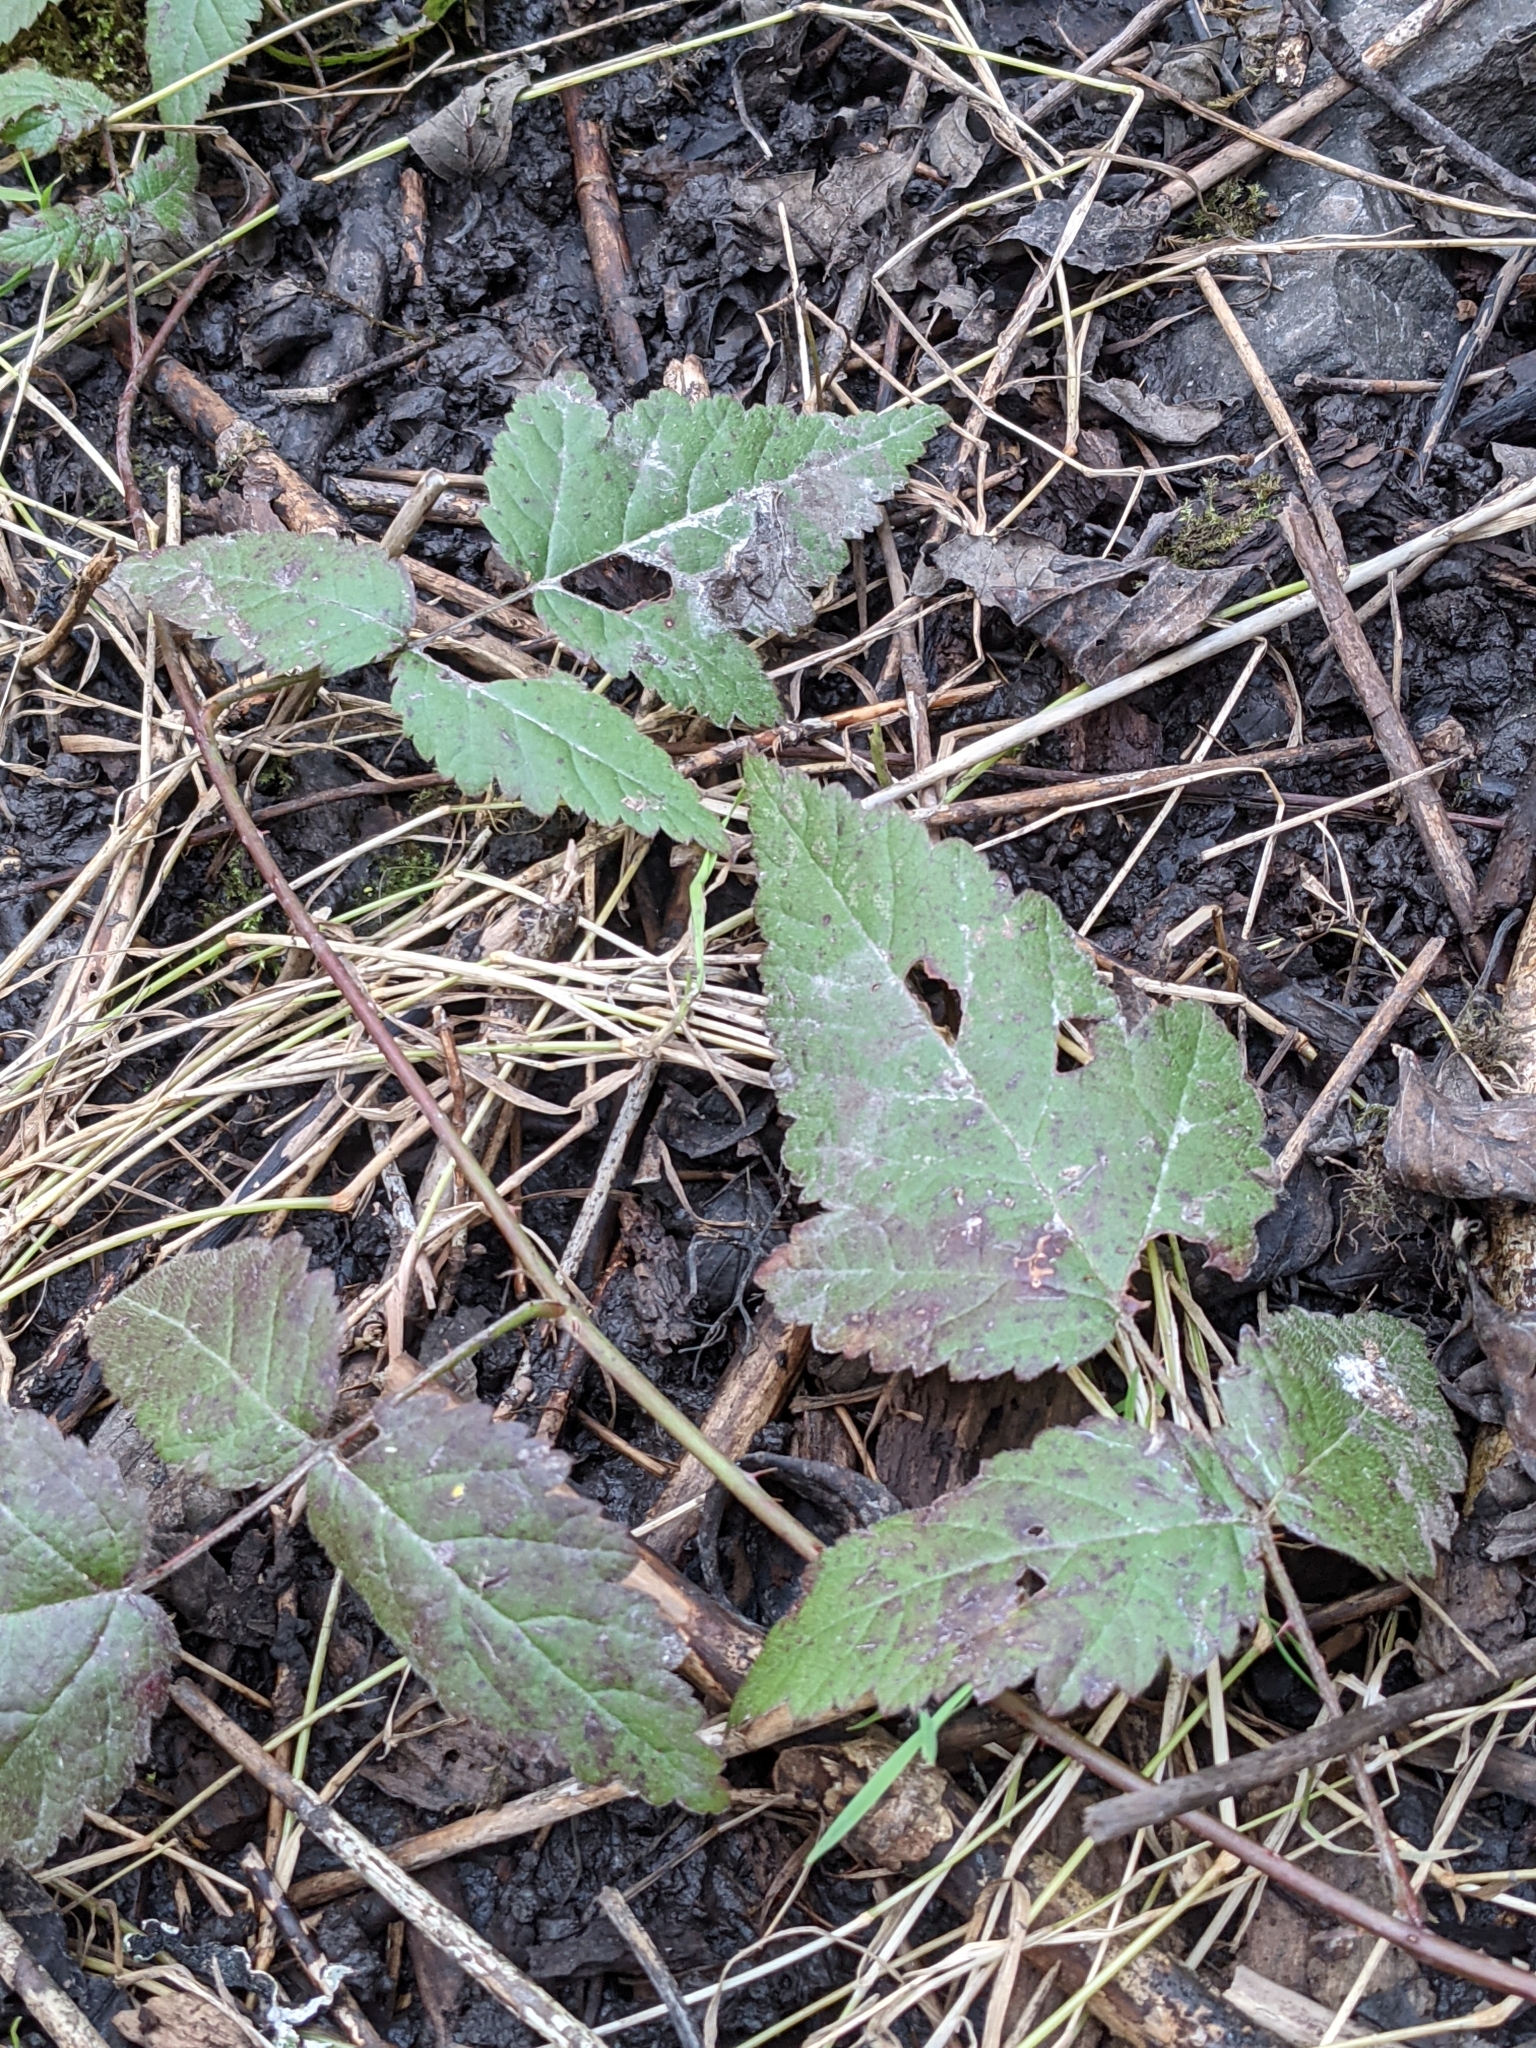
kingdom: Plantae
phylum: Tracheophyta
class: Magnoliopsida
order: Rosales
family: Rosaceae
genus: Rubus
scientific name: Rubus ursinus
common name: Pacific blackberry
